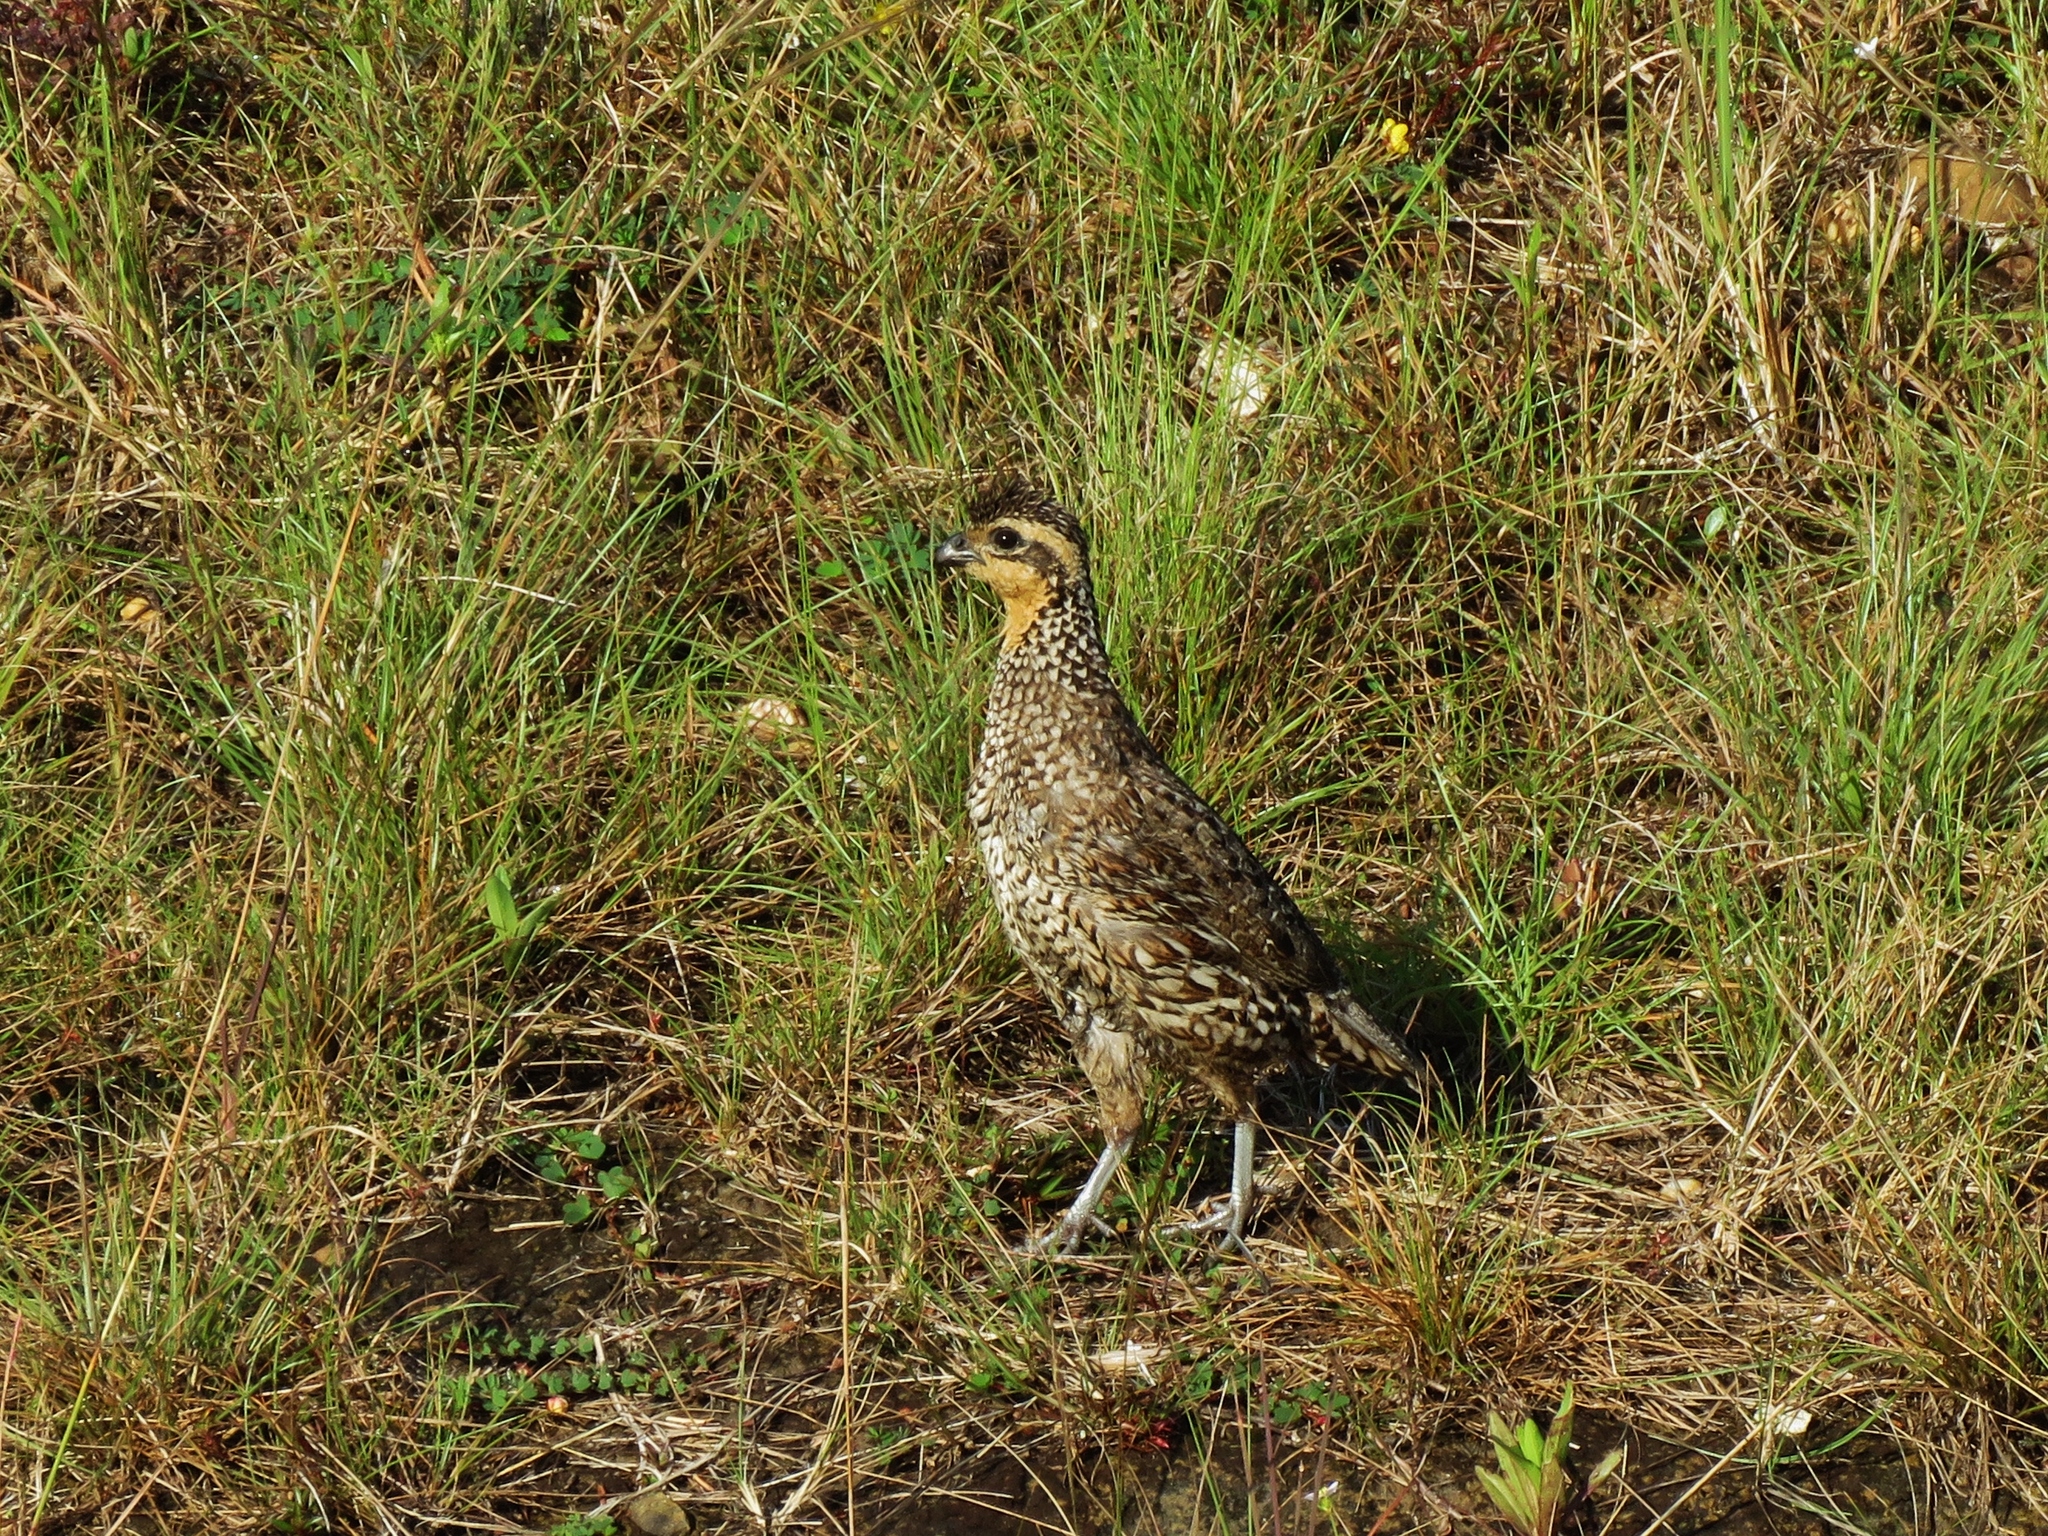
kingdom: Animalia
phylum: Chordata
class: Aves
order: Galliformes
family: Odontophoridae
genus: Colinus
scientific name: Colinus nigrogularis
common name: Yucatan bobwhite
